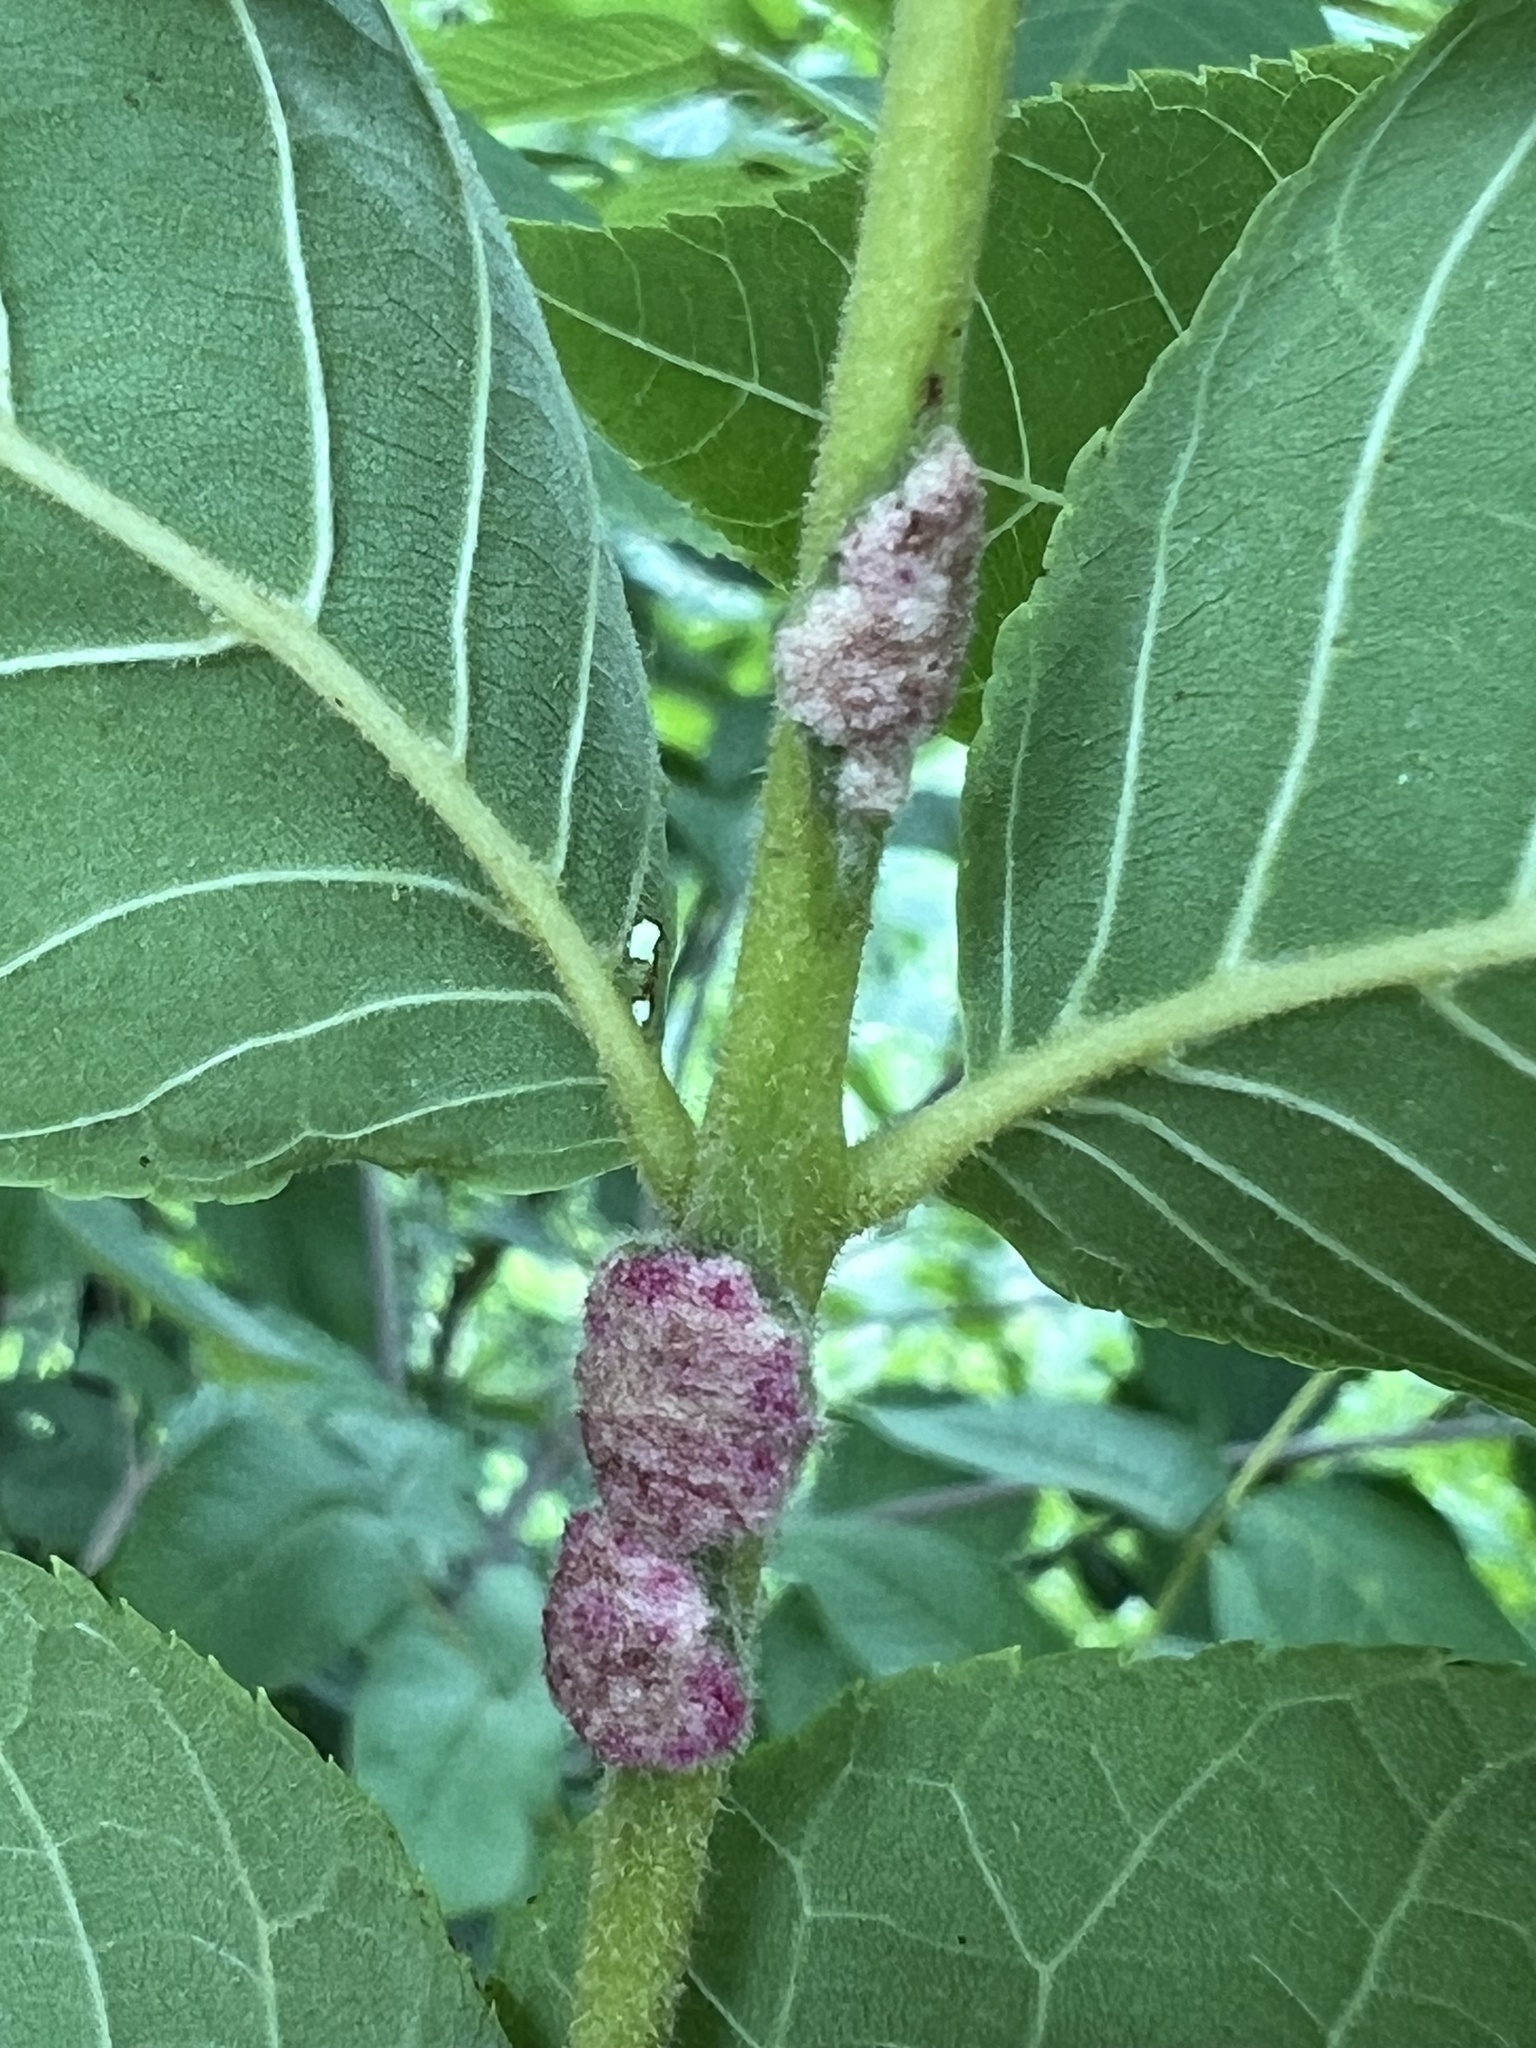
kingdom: Animalia
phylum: Arthropoda
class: Arachnida
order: Trombidiformes
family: Eriophyidae
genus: Aceria
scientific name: Aceria
